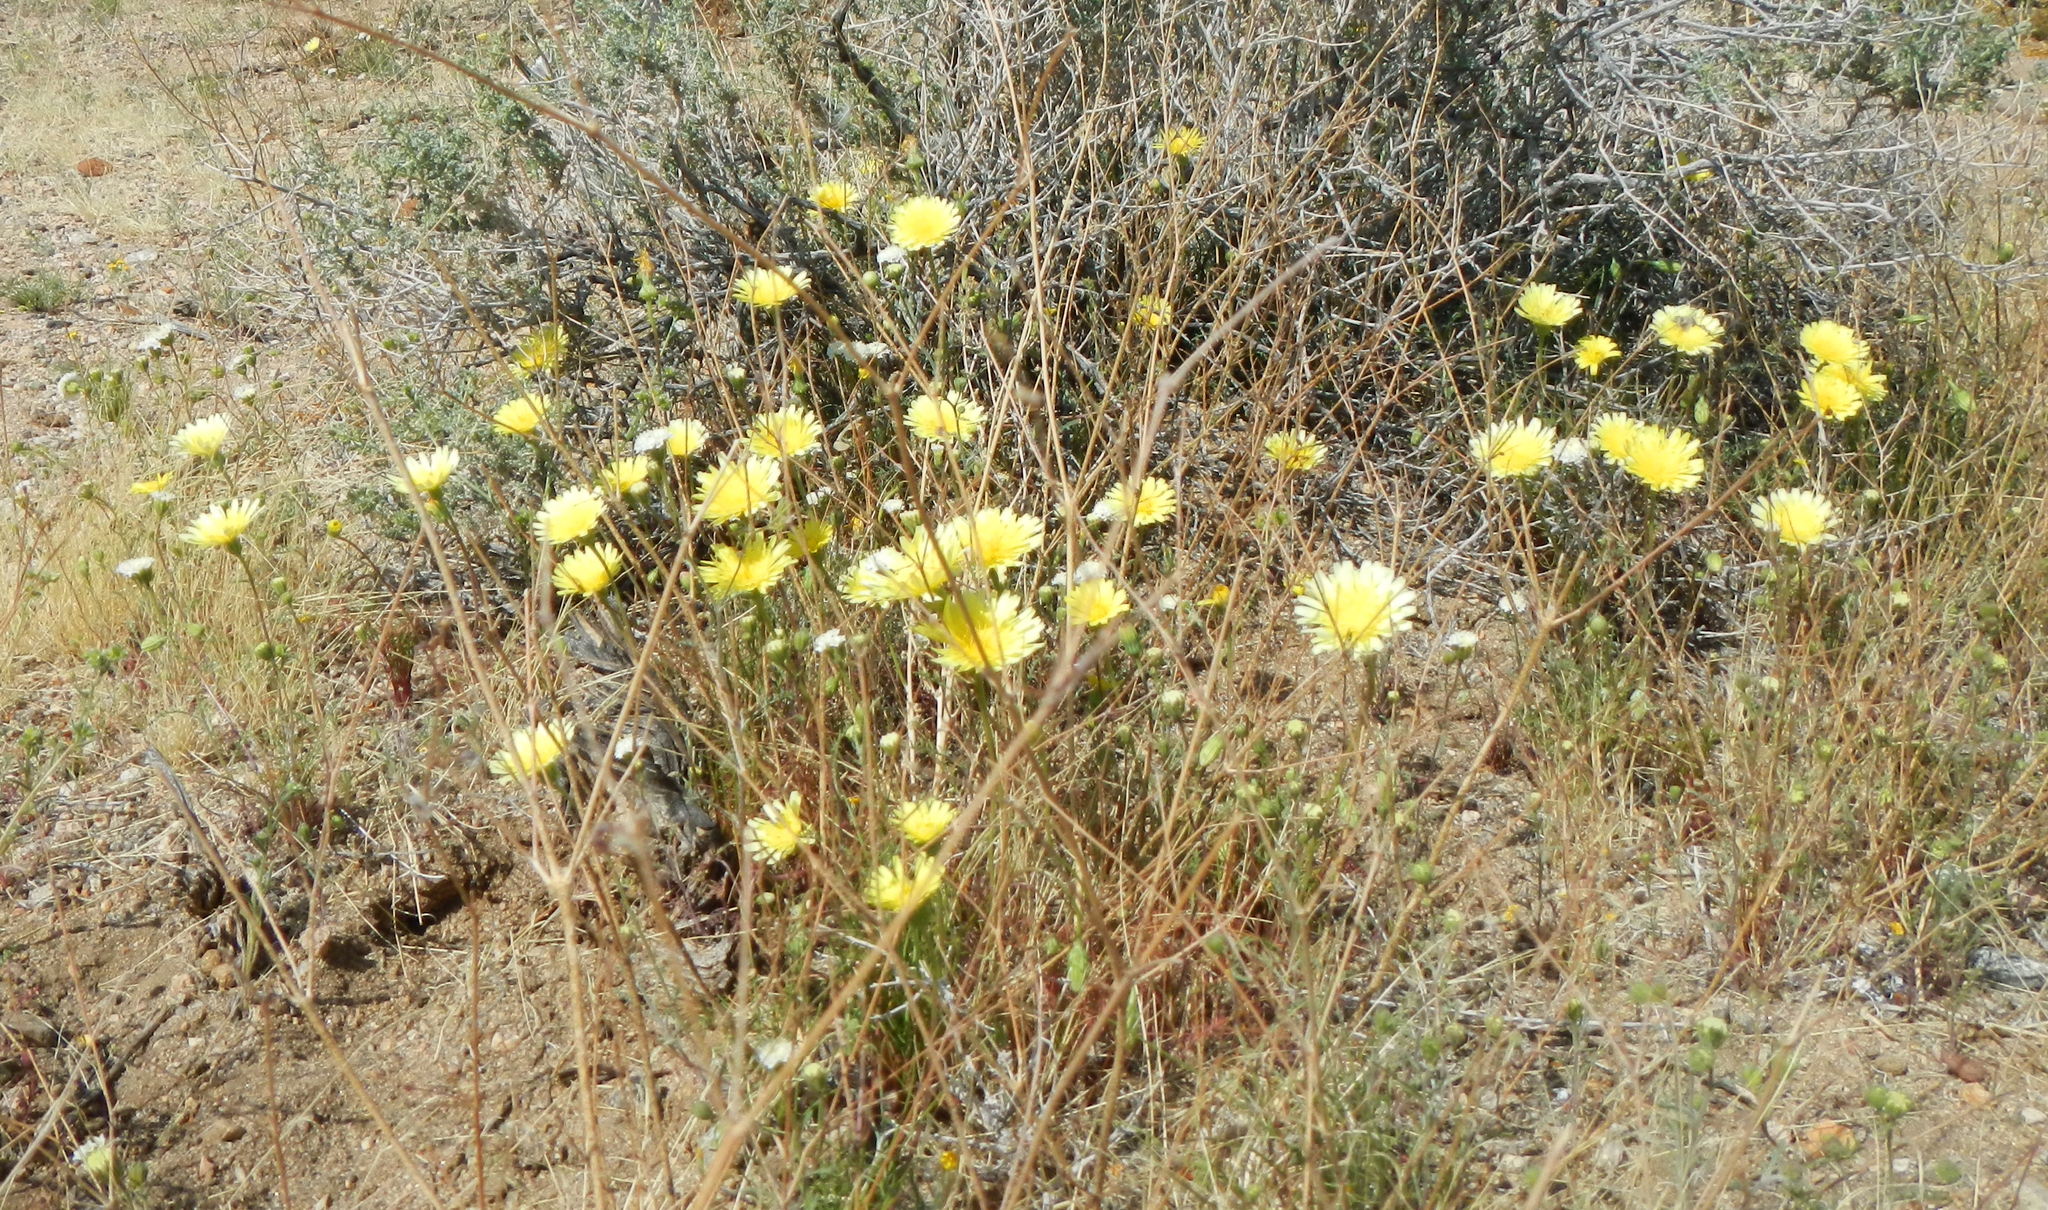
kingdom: Plantae
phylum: Tracheophyta
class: Magnoliopsida
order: Asterales
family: Asteraceae
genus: Malacothrix
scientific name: Malacothrix glabrata
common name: Smooth desert-dandelion
